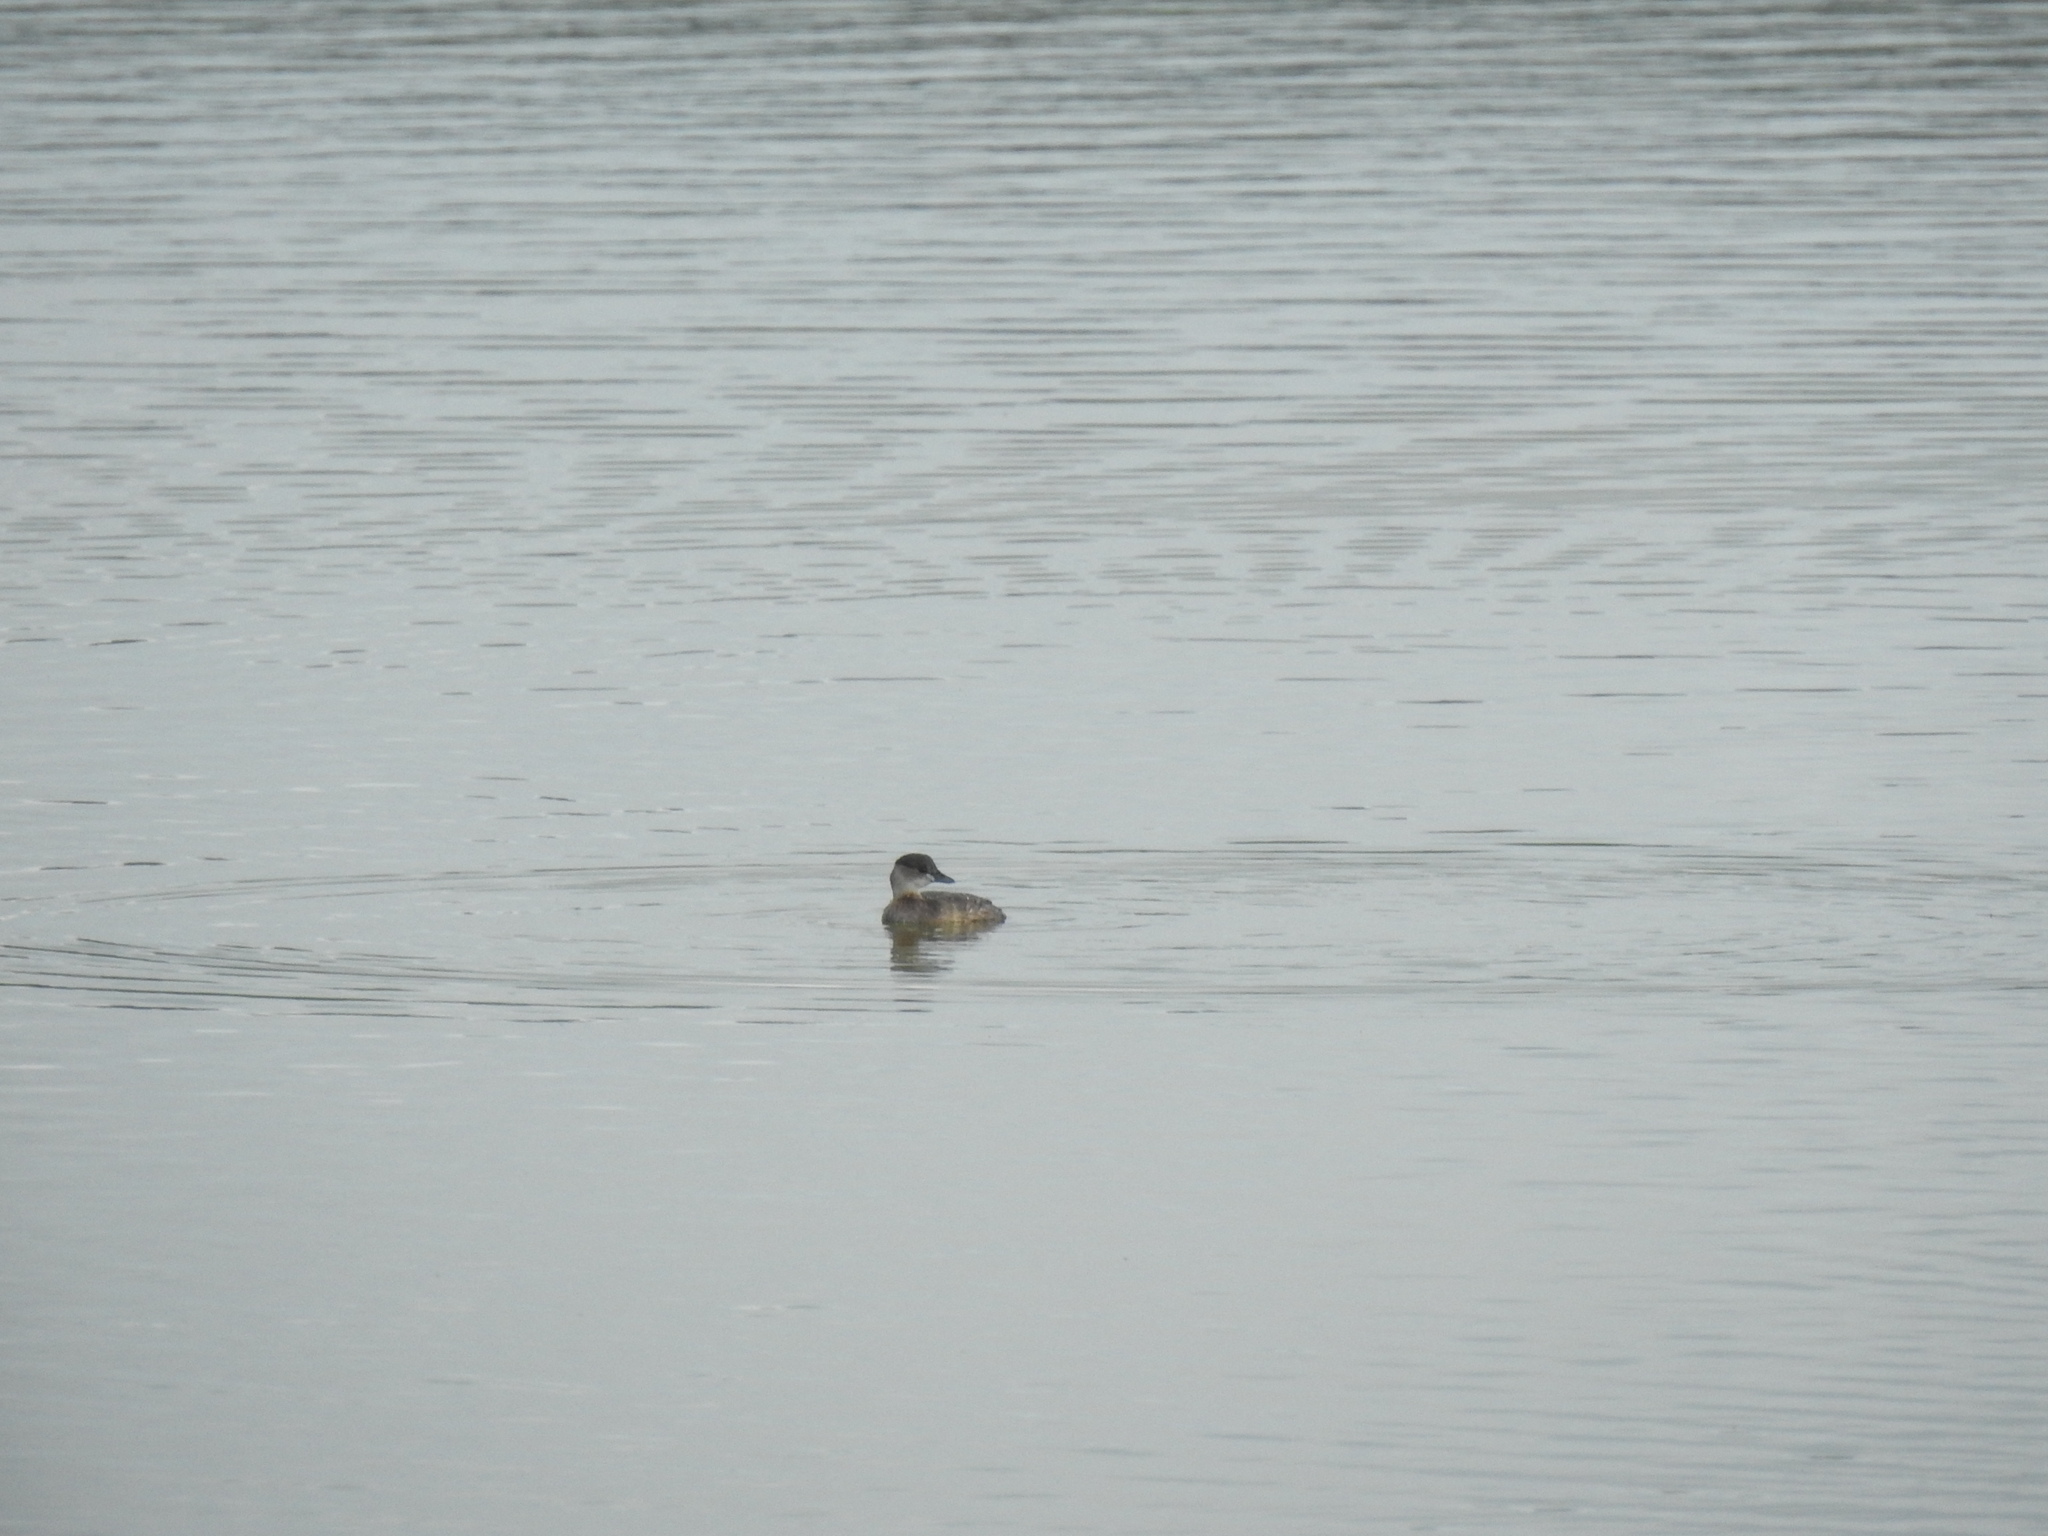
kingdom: Animalia
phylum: Chordata
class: Aves
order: Podicipediformes
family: Podicipedidae
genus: Tachybaptus
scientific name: Tachybaptus ruficollis
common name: Little grebe
